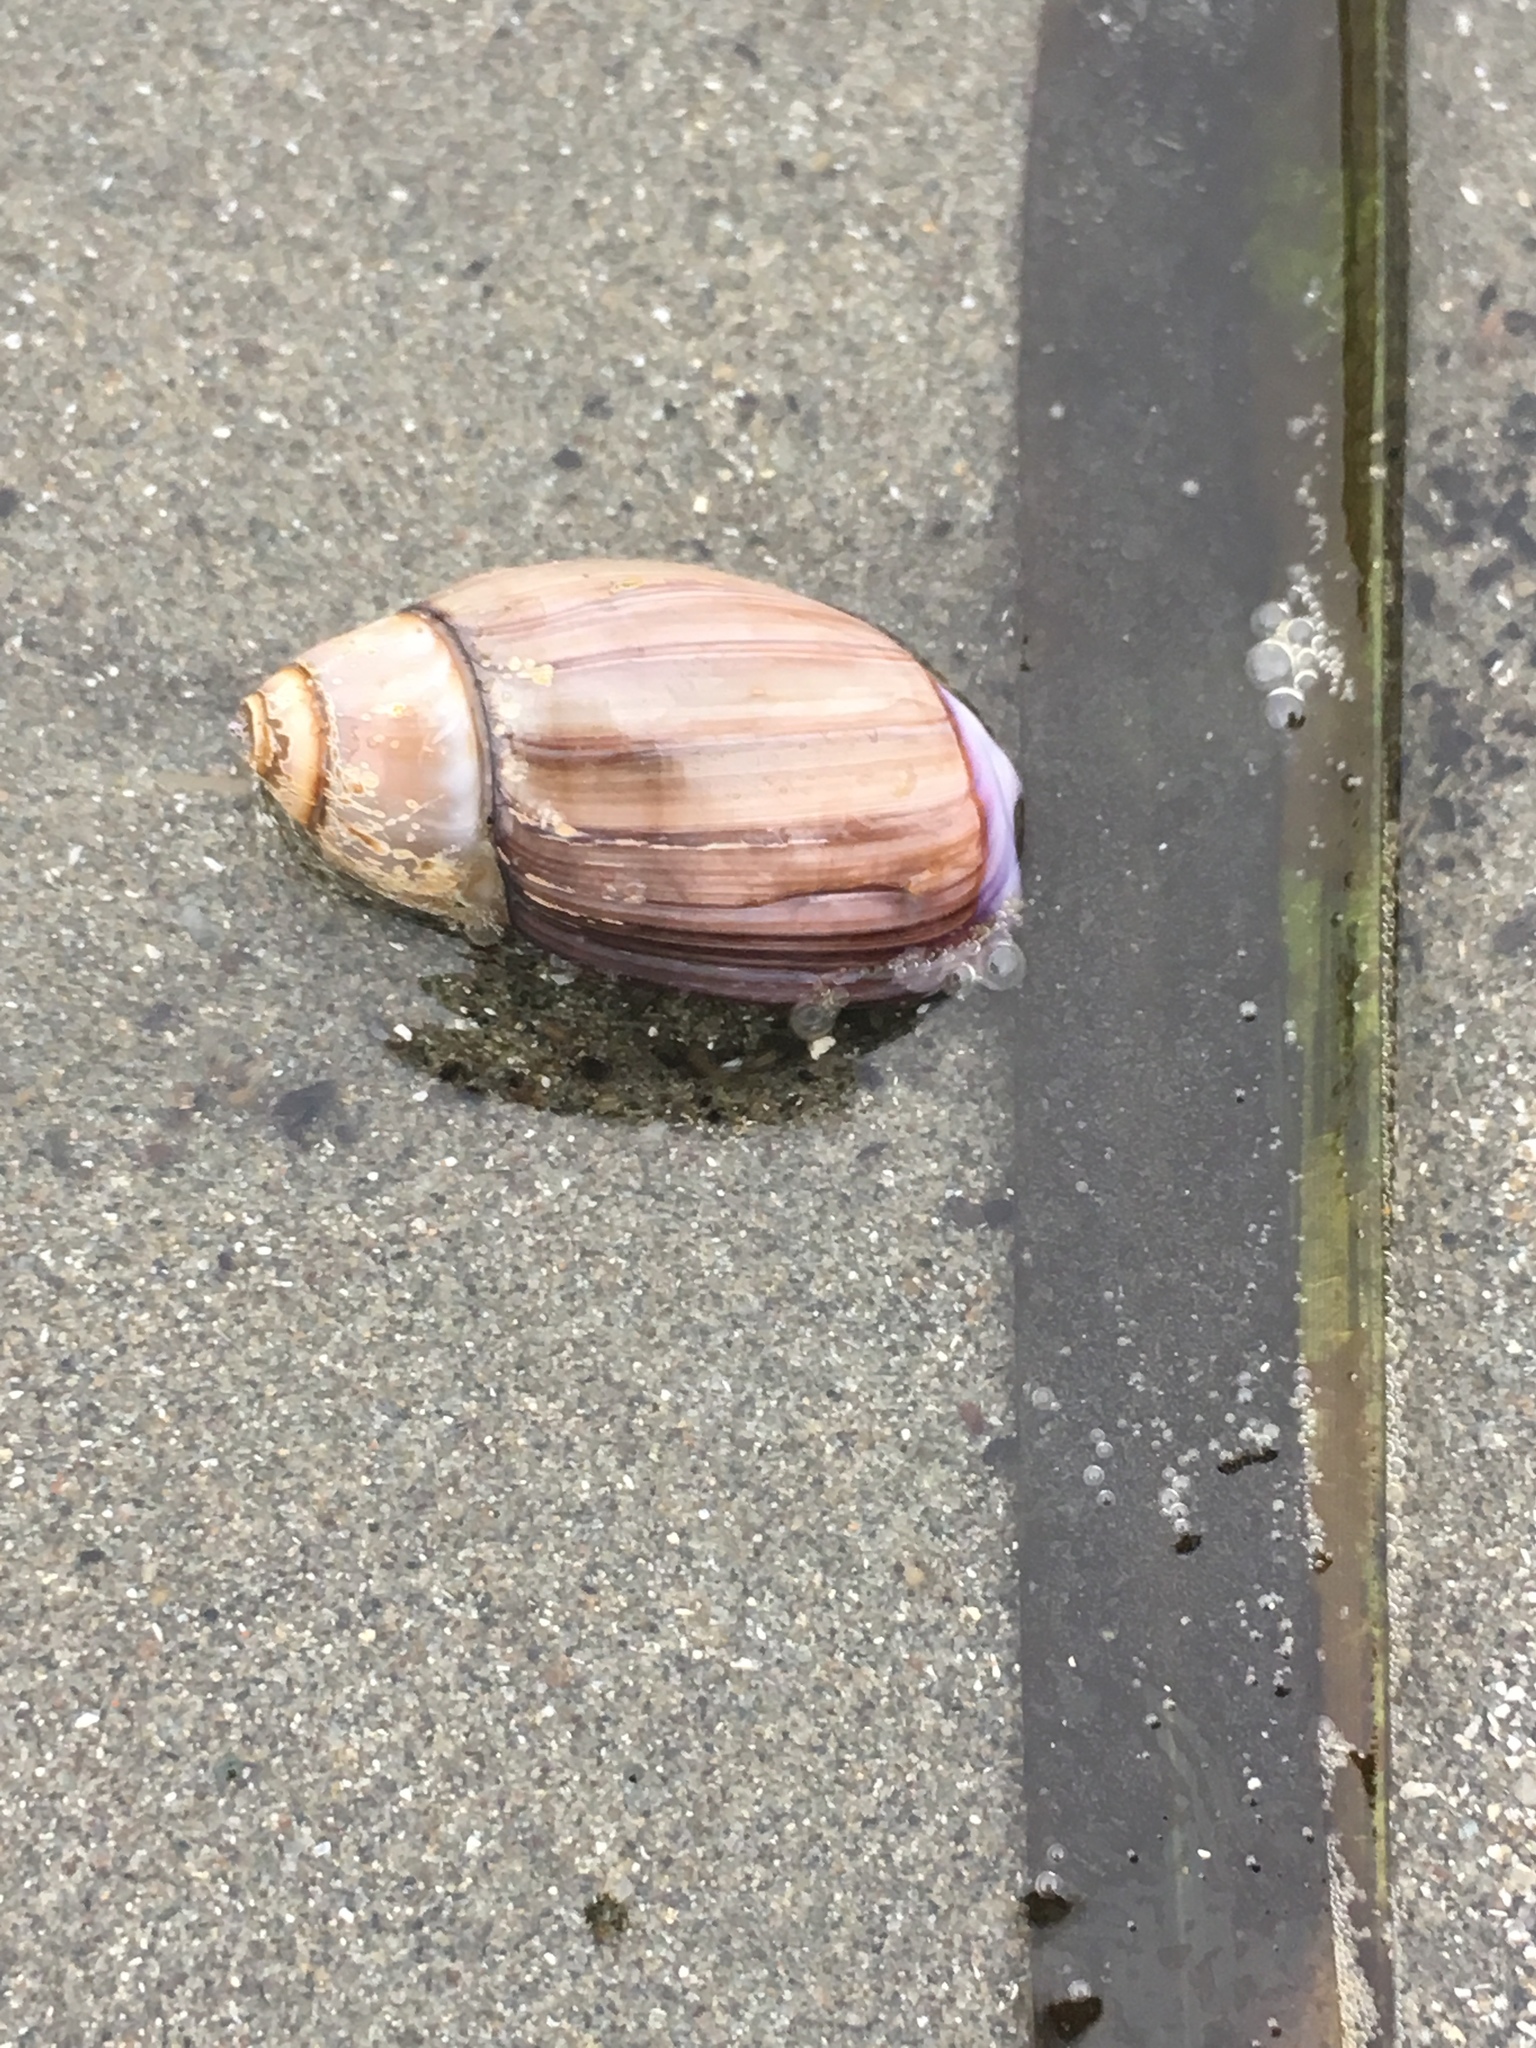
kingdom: Animalia
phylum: Mollusca
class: Gastropoda
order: Neogastropoda
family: Olividae
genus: Callianax
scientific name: Callianax biplicata
